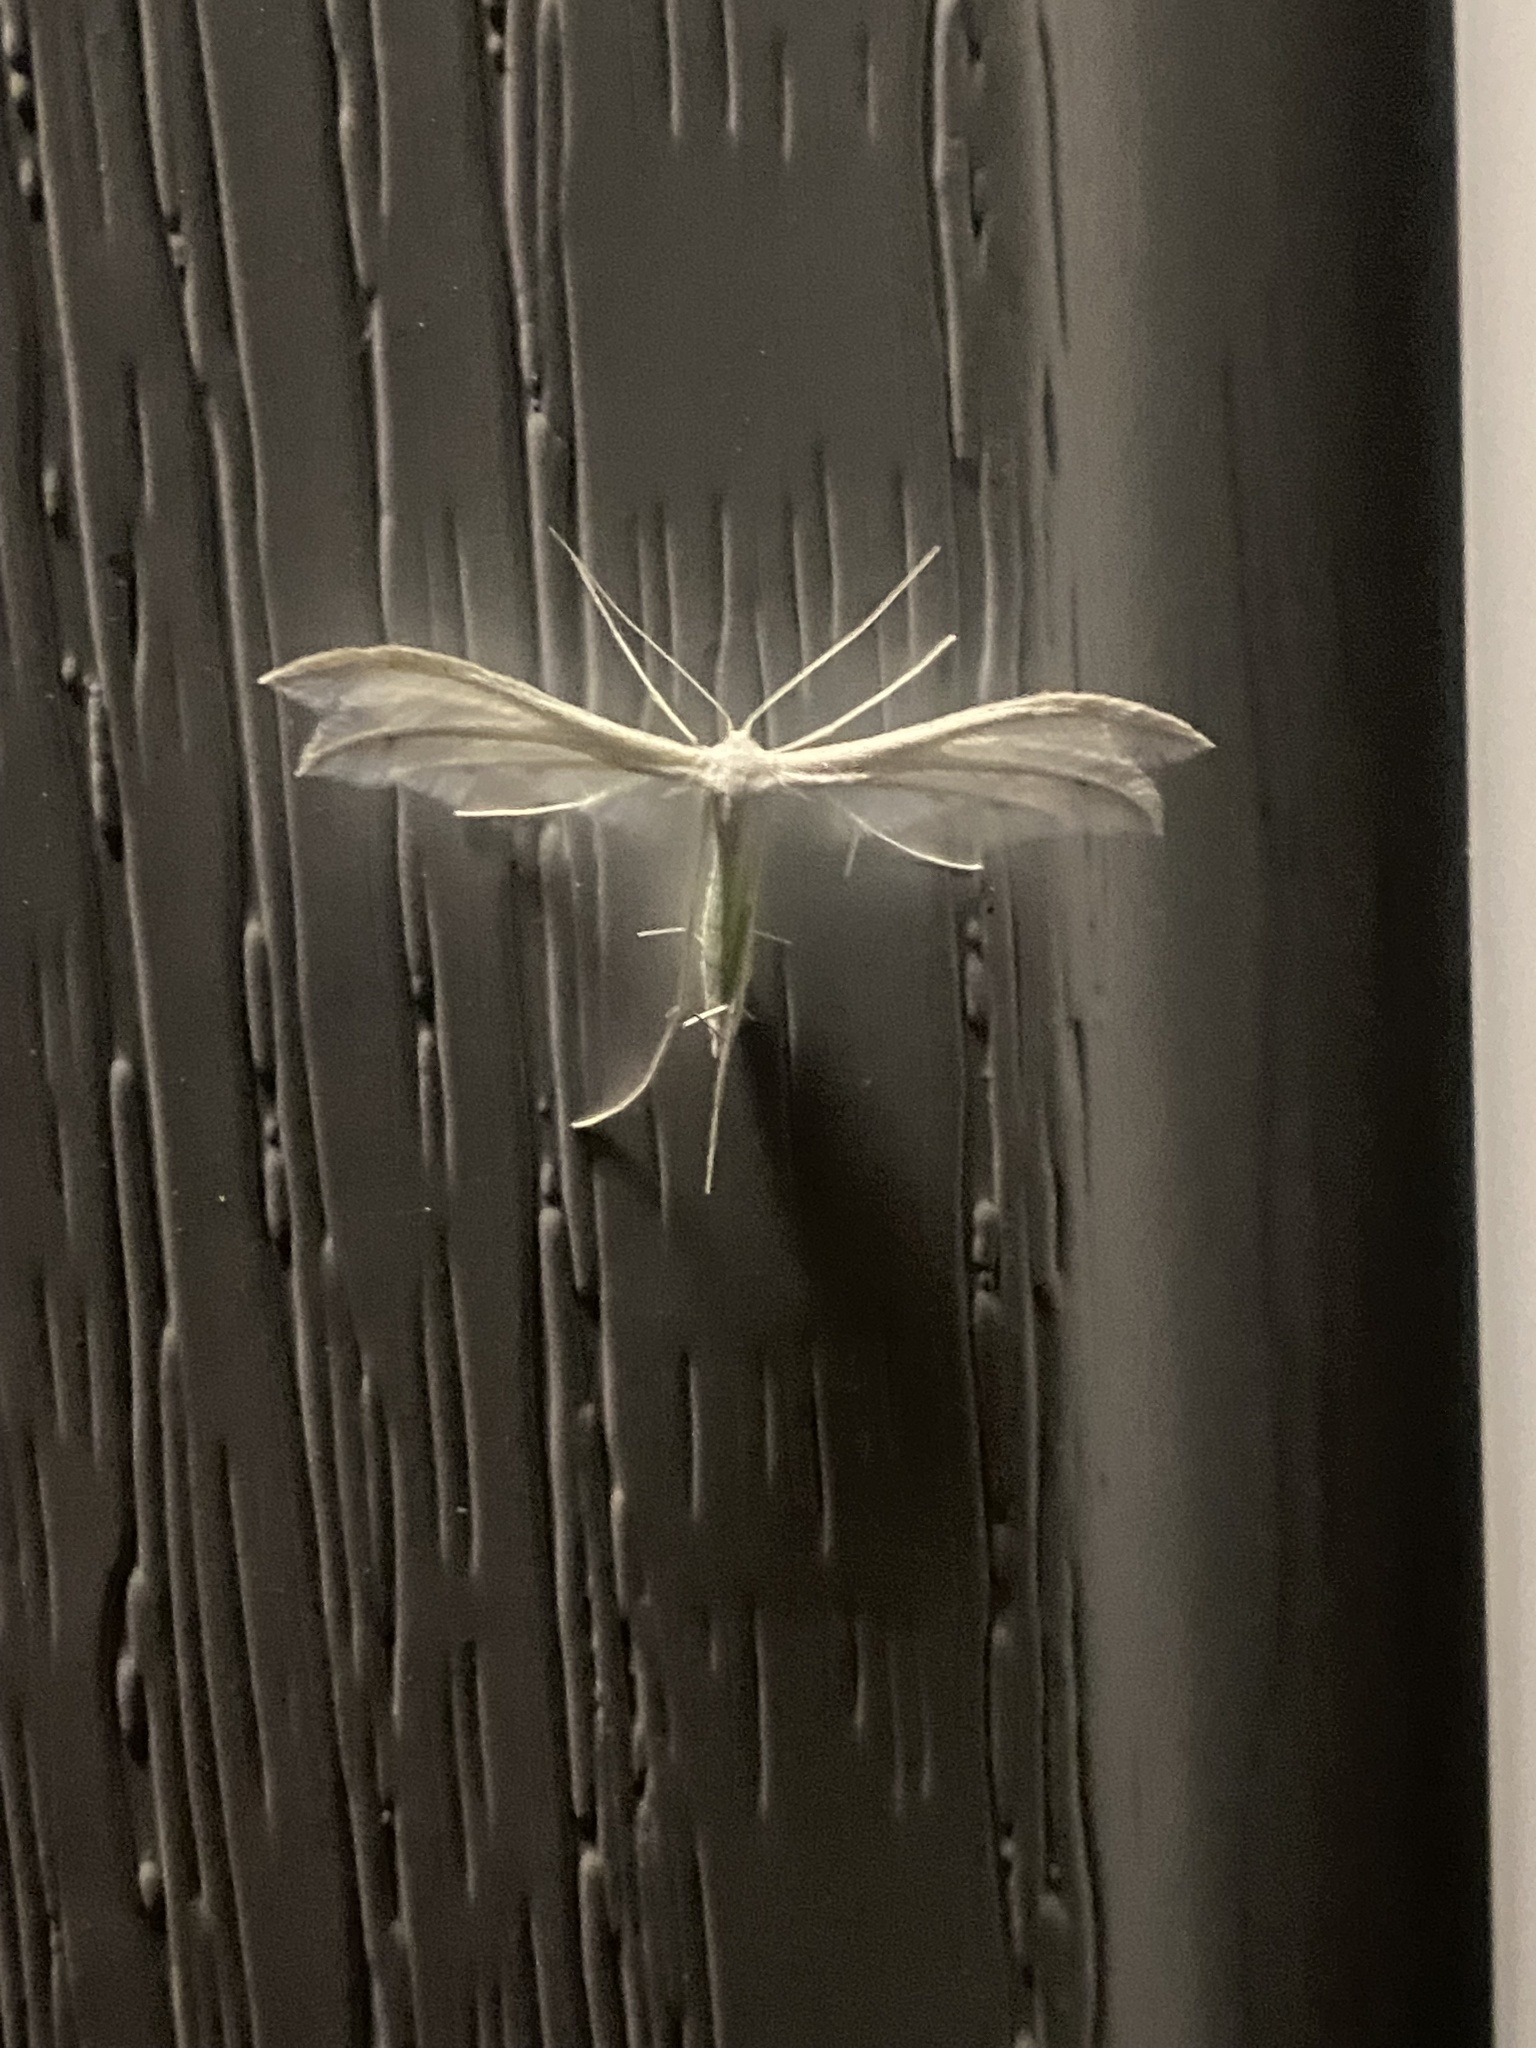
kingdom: Animalia
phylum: Arthropoda
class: Insecta
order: Lepidoptera
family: Pterophoridae
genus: Pterophorus
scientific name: Pterophorus pentadactyla
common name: White plume moth
